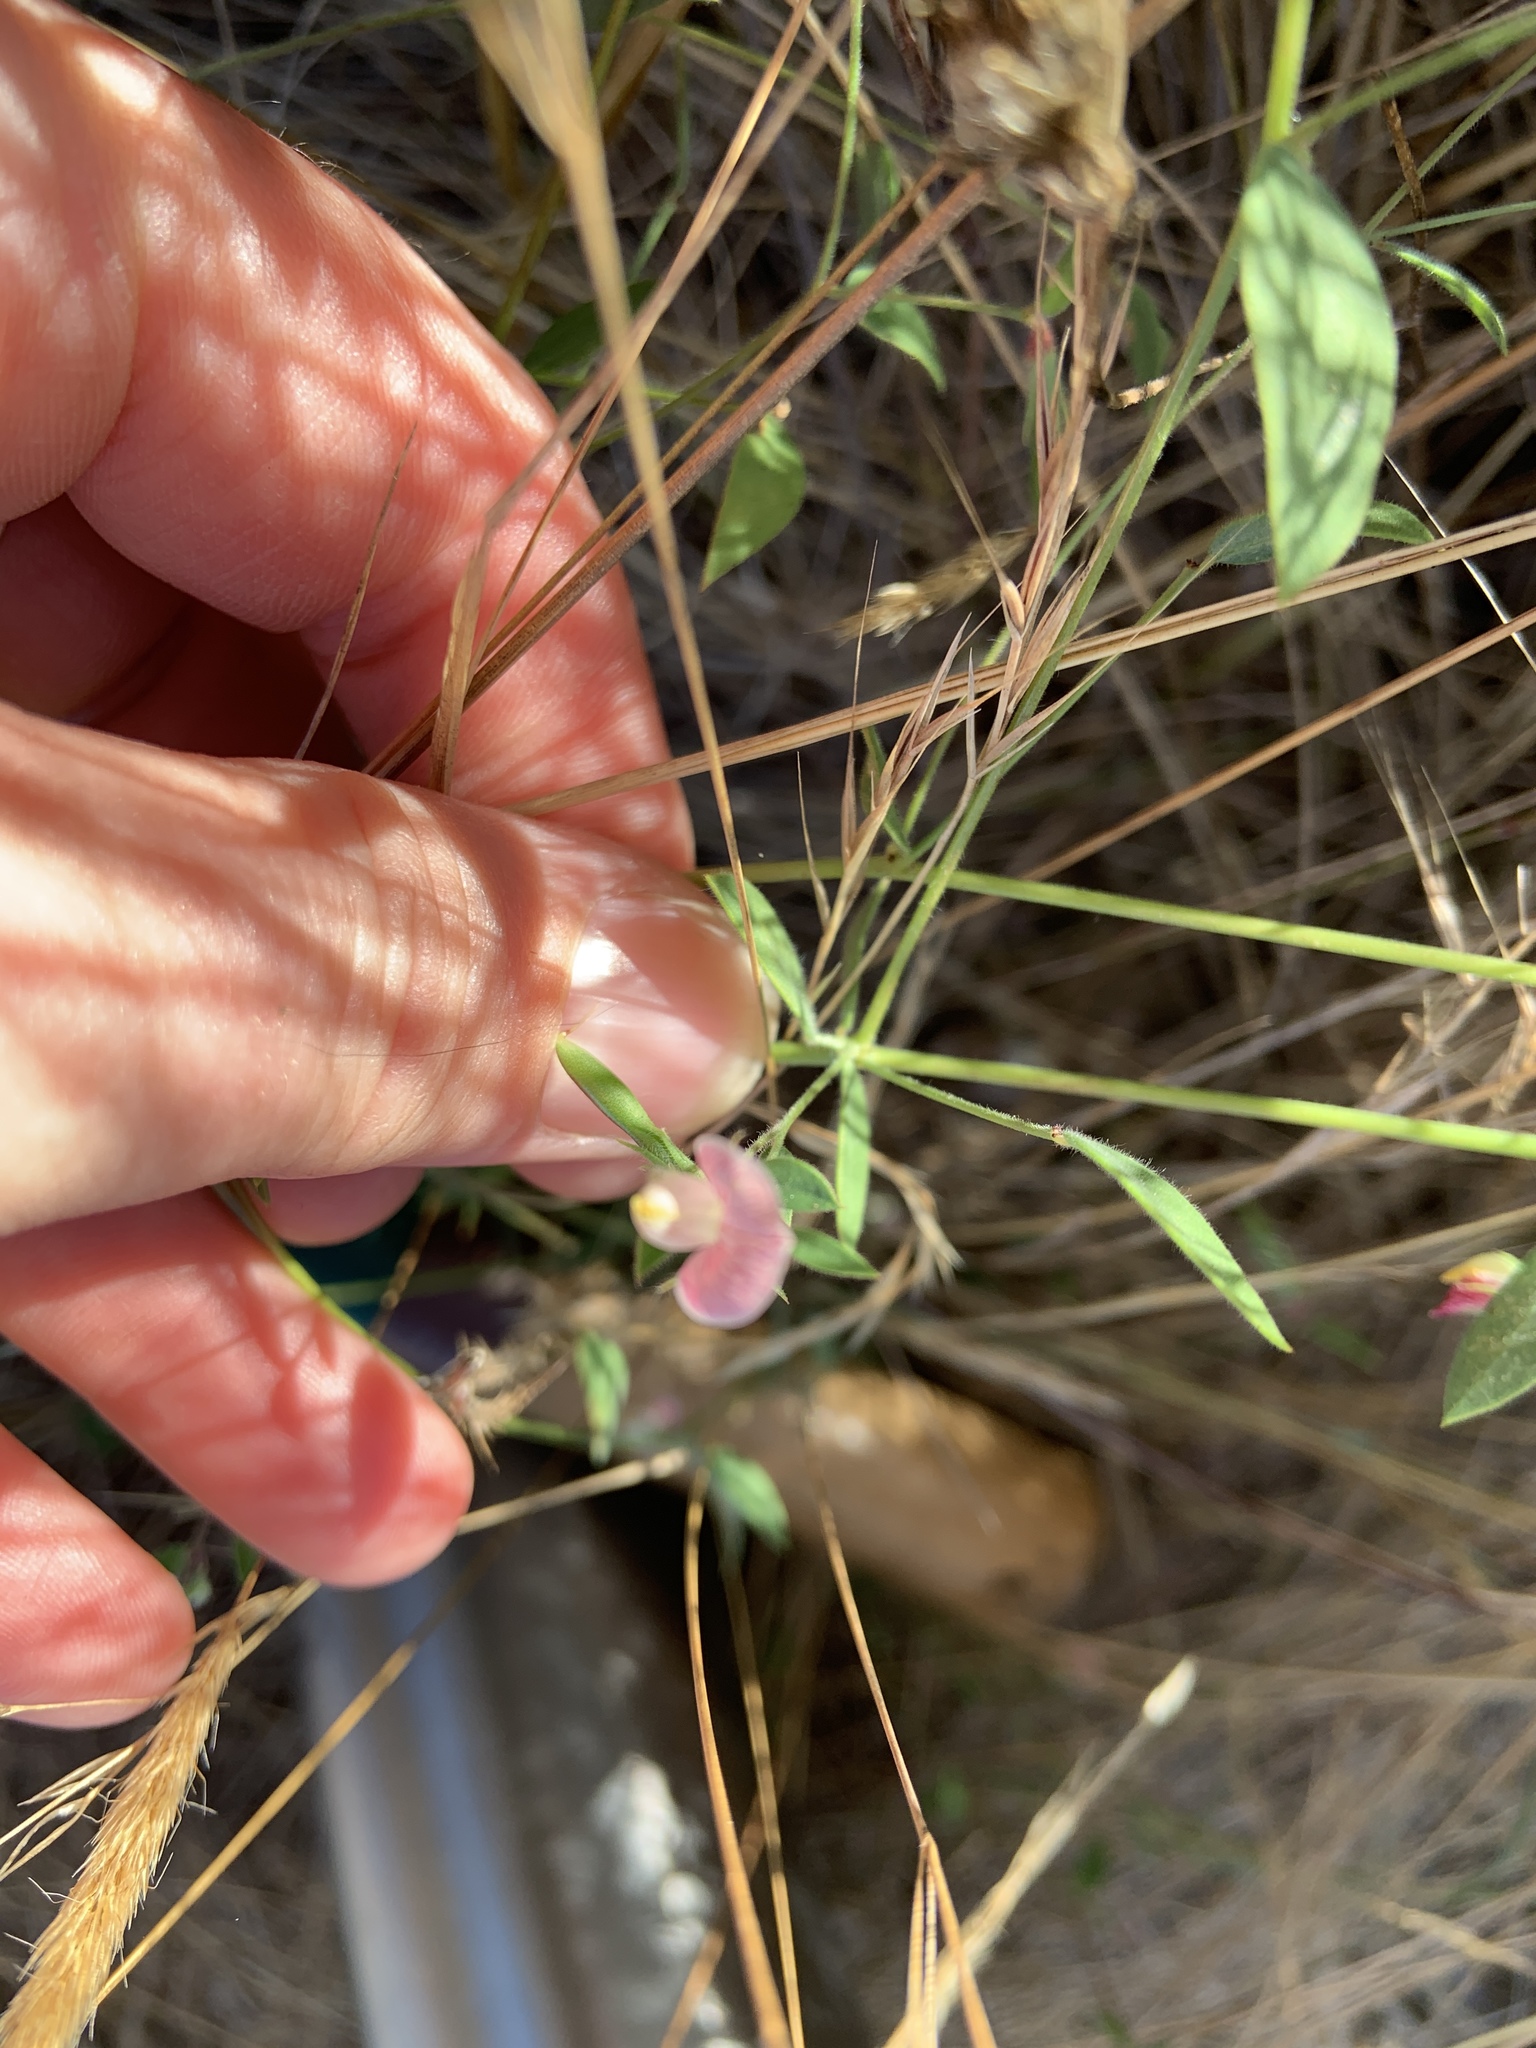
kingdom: Plantae
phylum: Tracheophyta
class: Magnoliopsida
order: Fabales
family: Fabaceae
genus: Acmispon
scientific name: Acmispon americanus
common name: American bird's-foot trefoil
